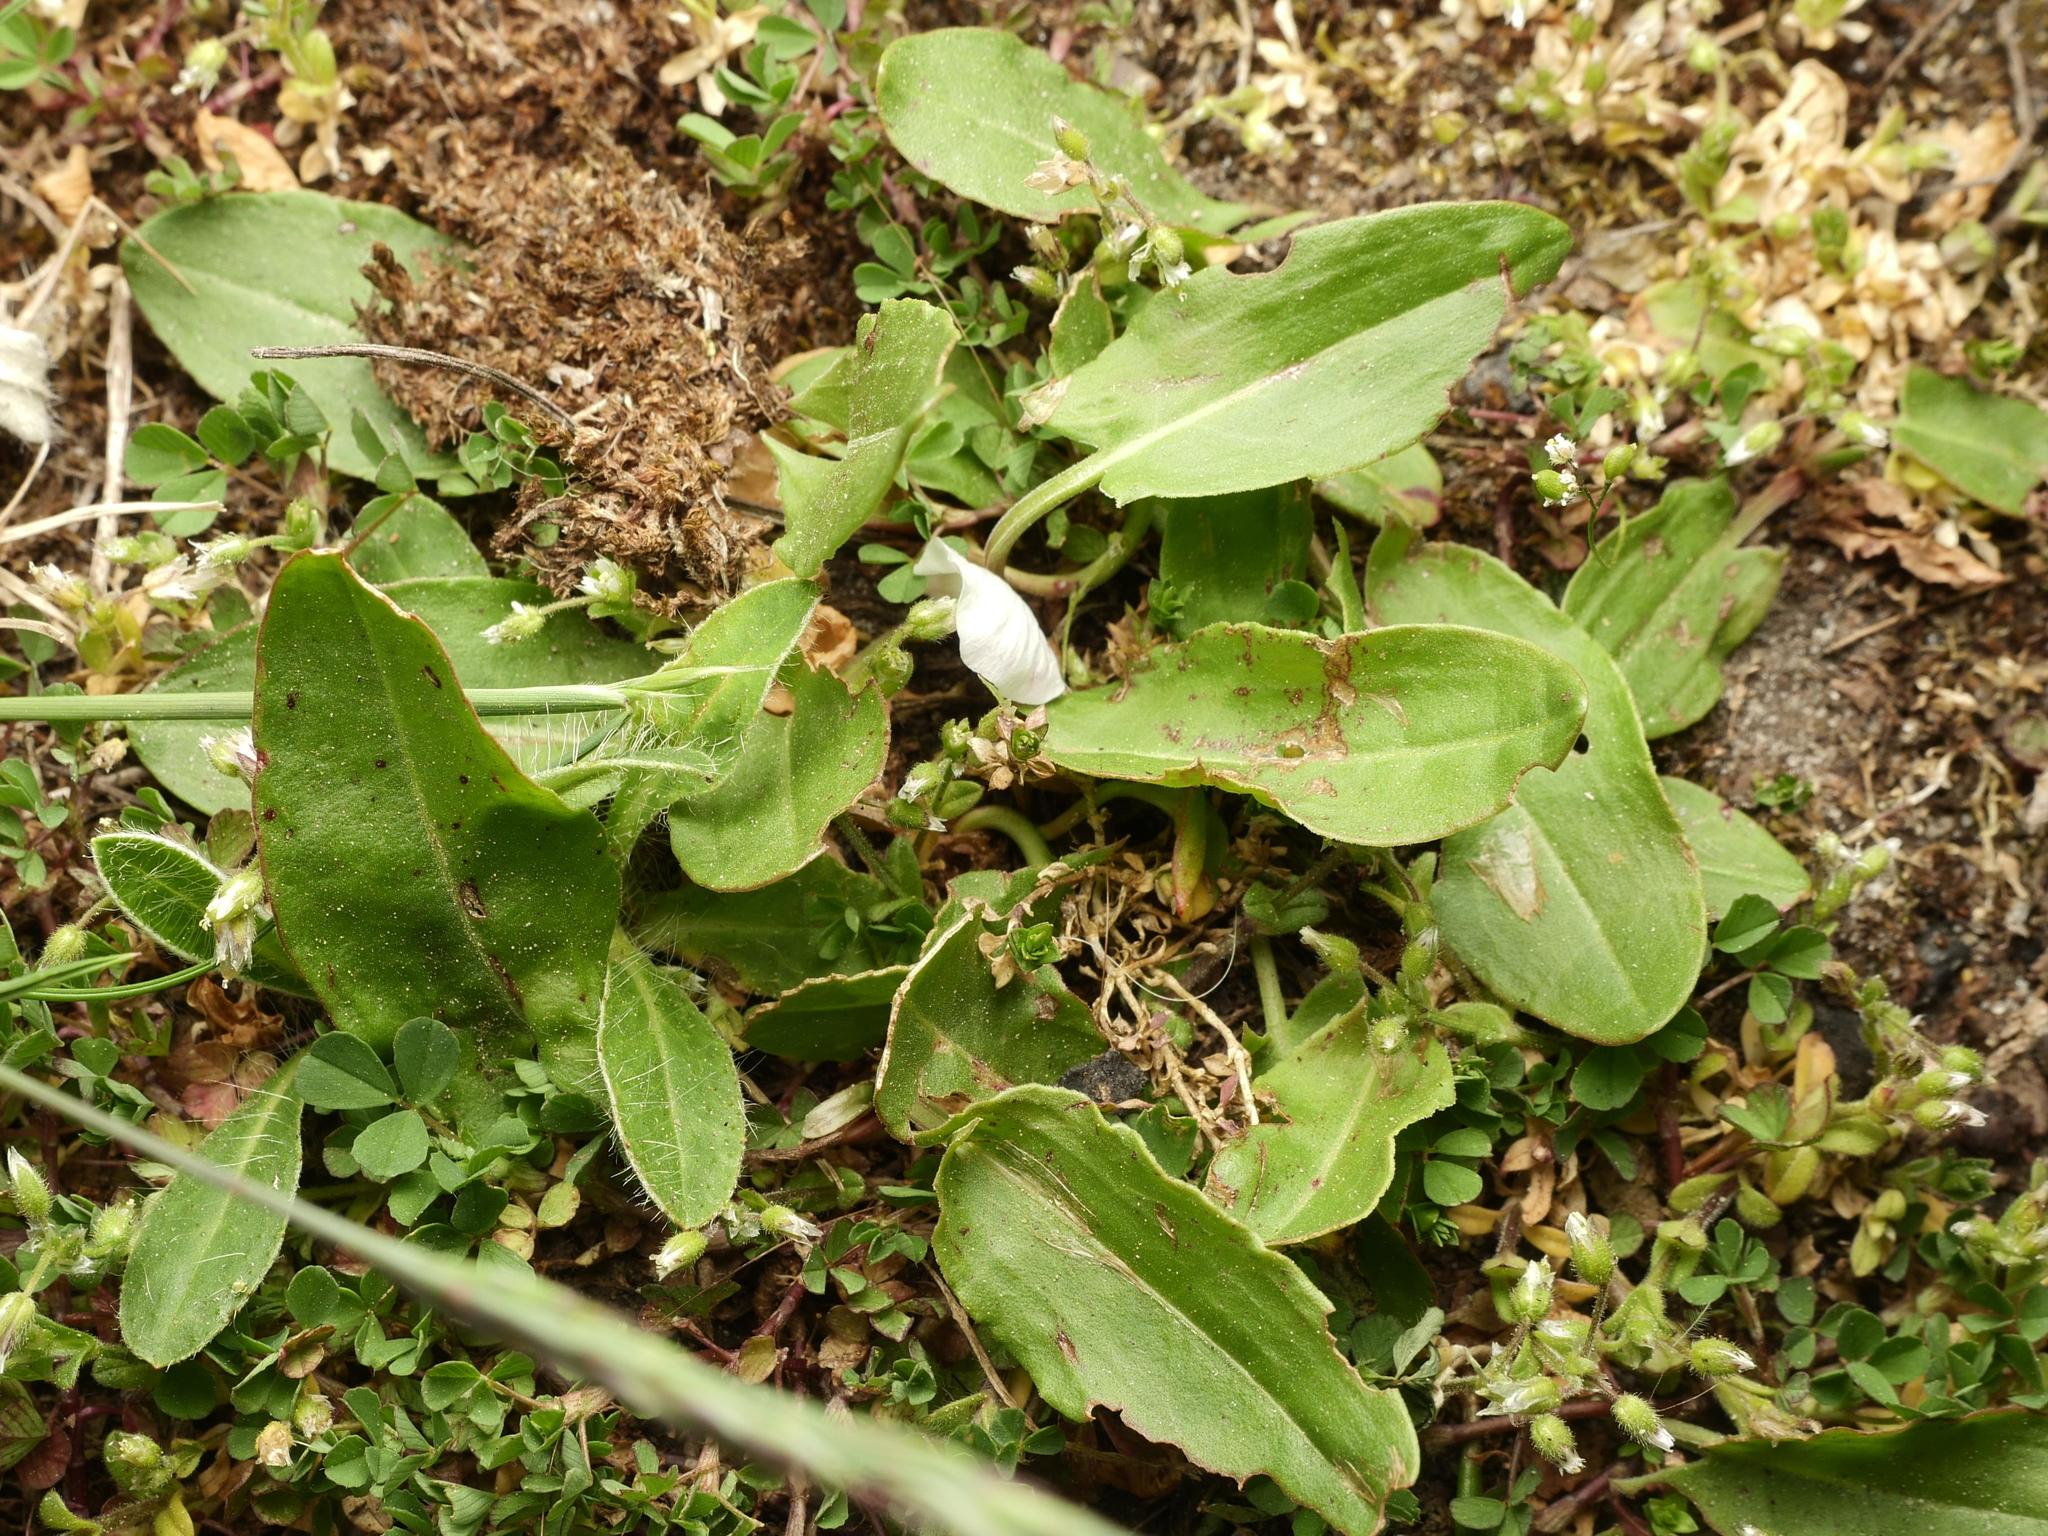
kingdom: Plantae
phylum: Tracheophyta
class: Magnoliopsida
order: Caryophyllales
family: Polygonaceae
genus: Rumex
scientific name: Rumex acetosa
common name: Garden sorrel
